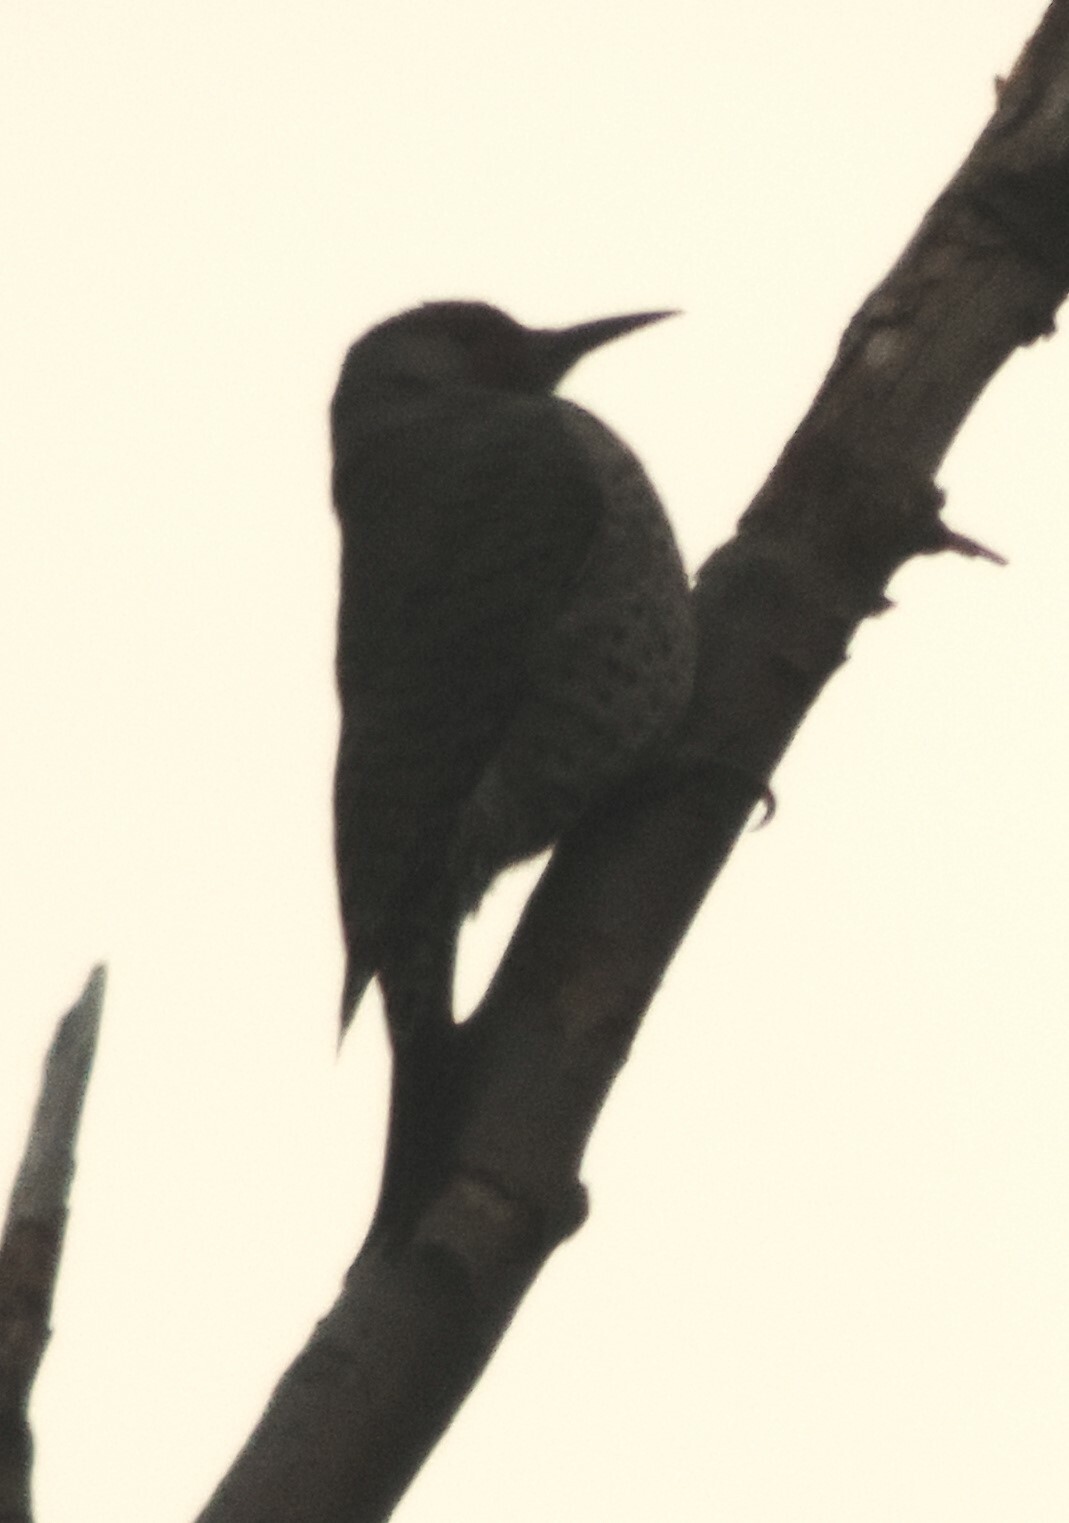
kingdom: Animalia
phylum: Chordata
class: Aves
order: Piciformes
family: Picidae
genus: Colaptes
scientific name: Colaptes auratus
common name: Northern flicker
